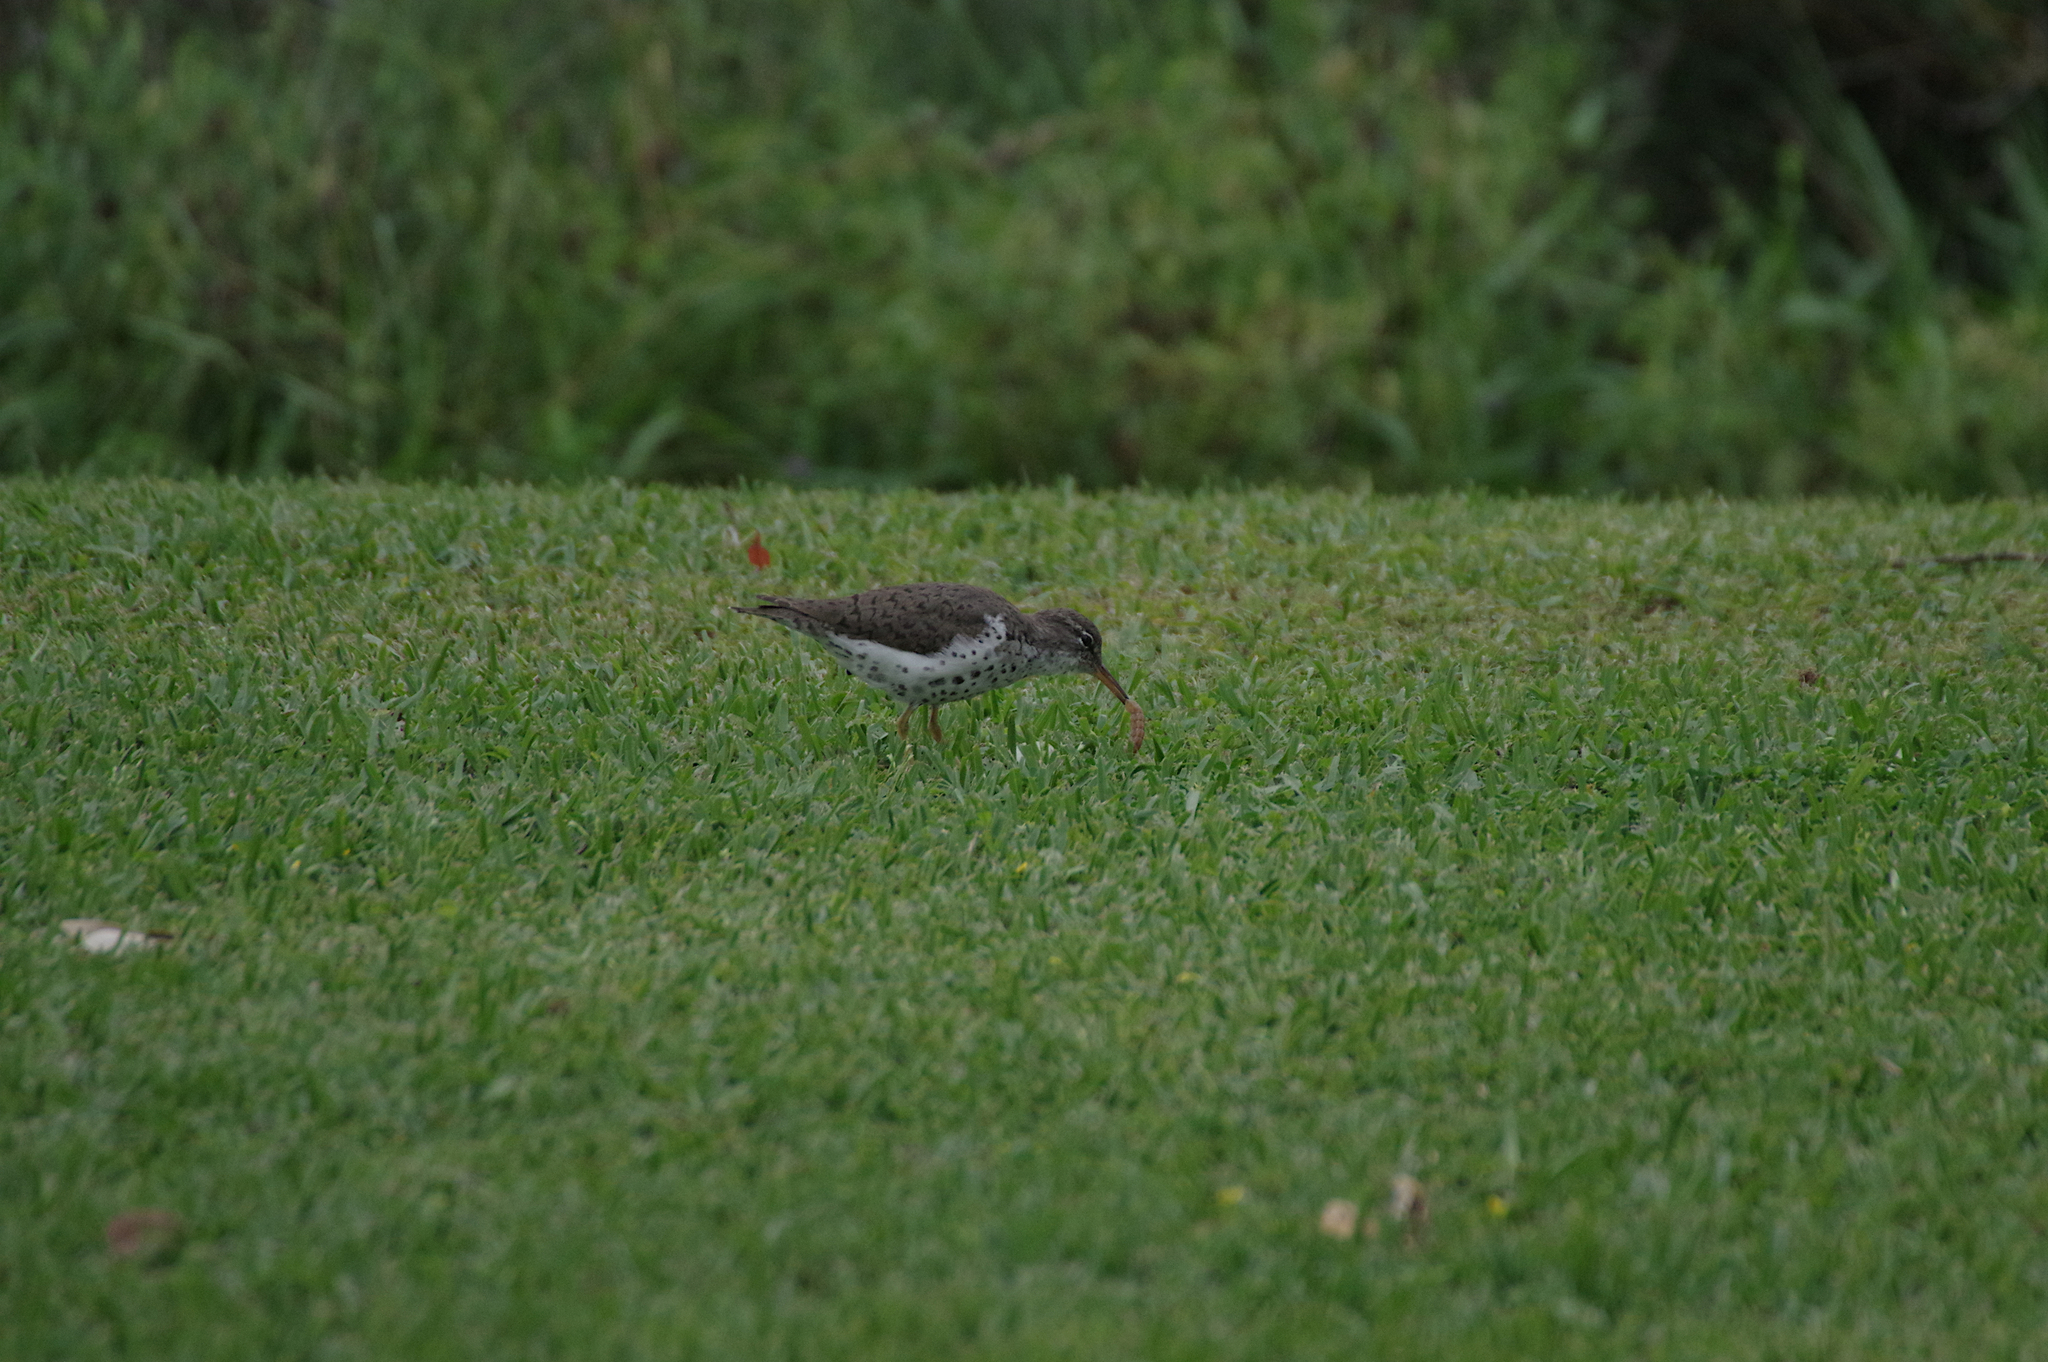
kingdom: Animalia
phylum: Chordata
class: Aves
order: Charadriiformes
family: Scolopacidae
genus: Actitis
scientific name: Actitis macularius
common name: Spotted sandpiper
